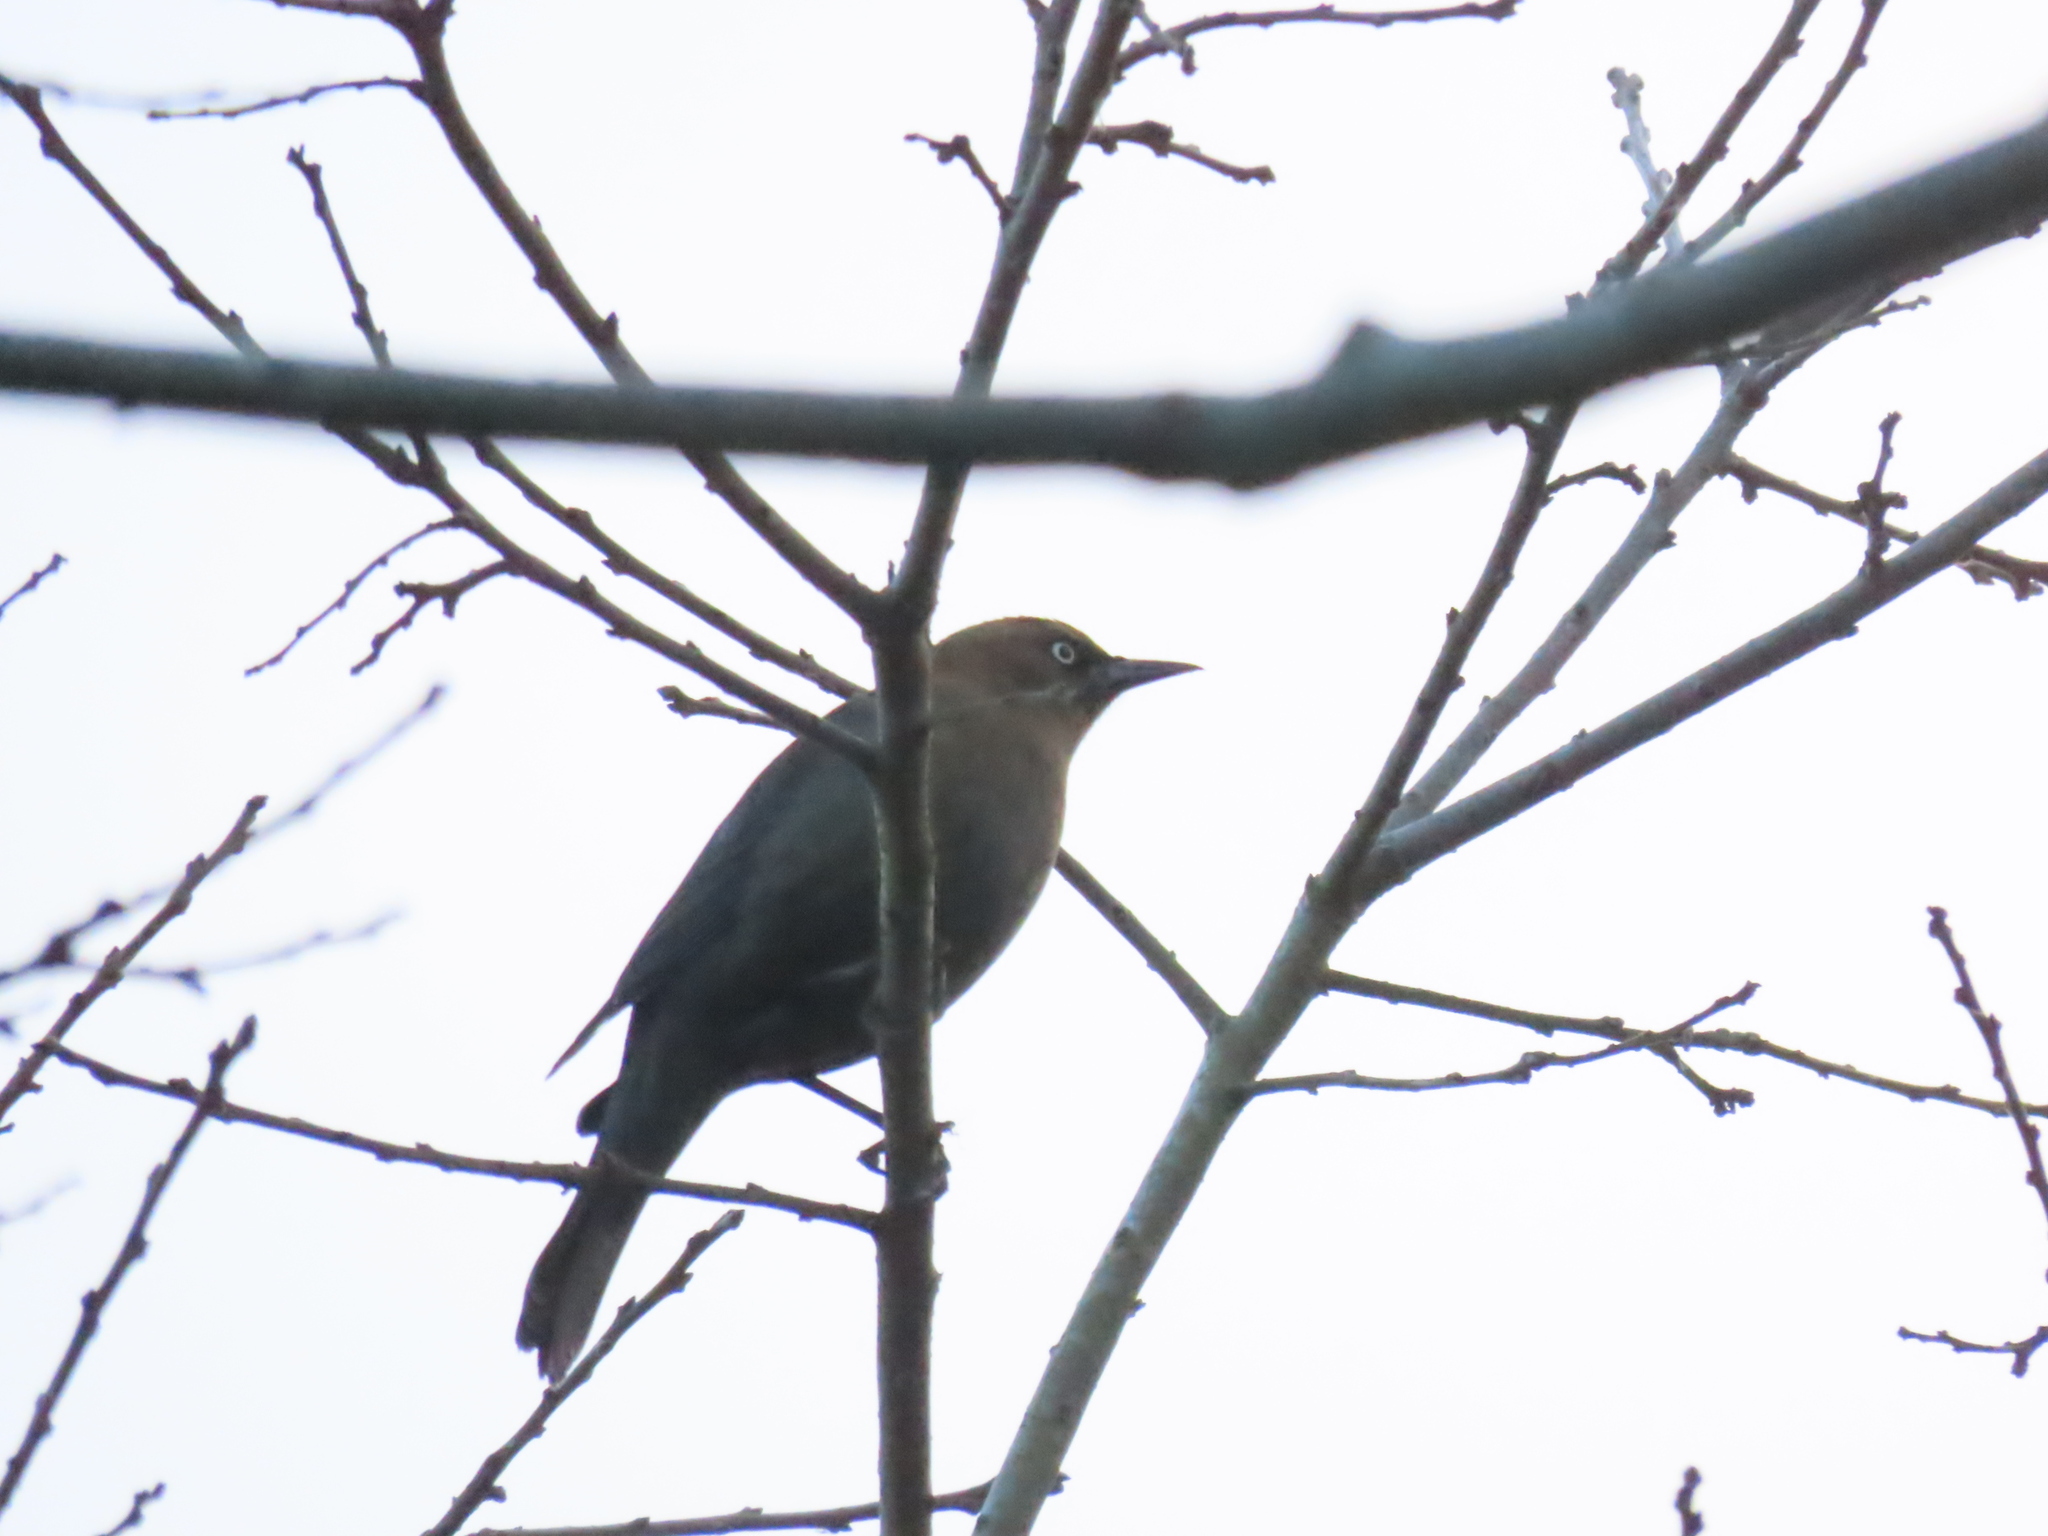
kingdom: Animalia
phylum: Chordata
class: Aves
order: Passeriformes
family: Icteridae
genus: Euphagus
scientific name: Euphagus carolinus
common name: Rusty blackbird
